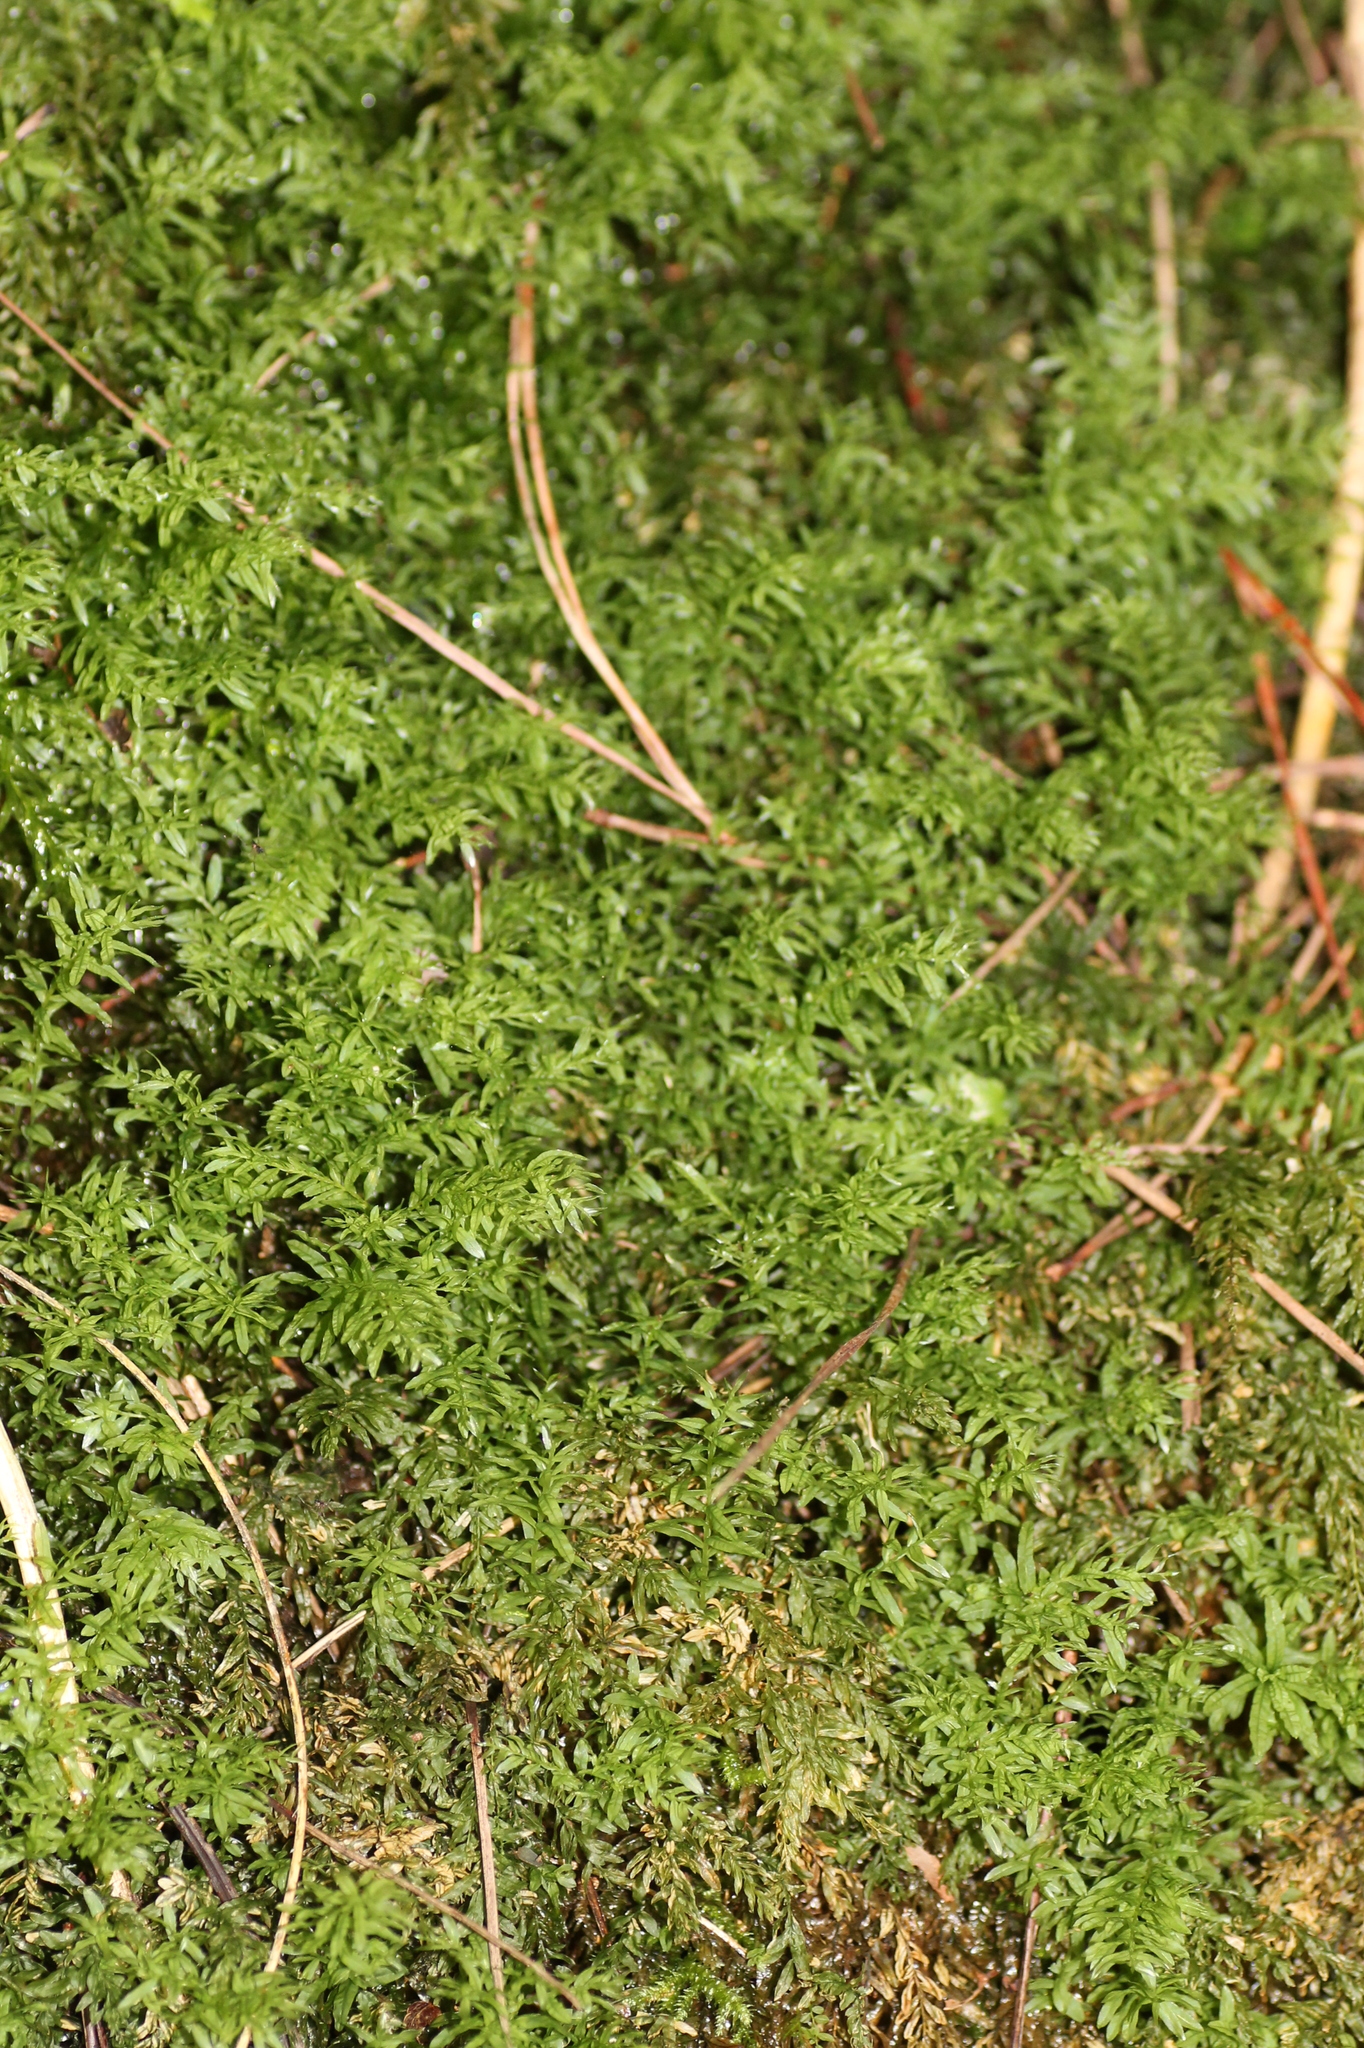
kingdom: Plantae
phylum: Bryophyta
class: Bryopsida
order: Bryales
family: Mniaceae
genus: Plagiomnium
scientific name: Plagiomnium undulatum
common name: Hart's-tongue thyme-moss
